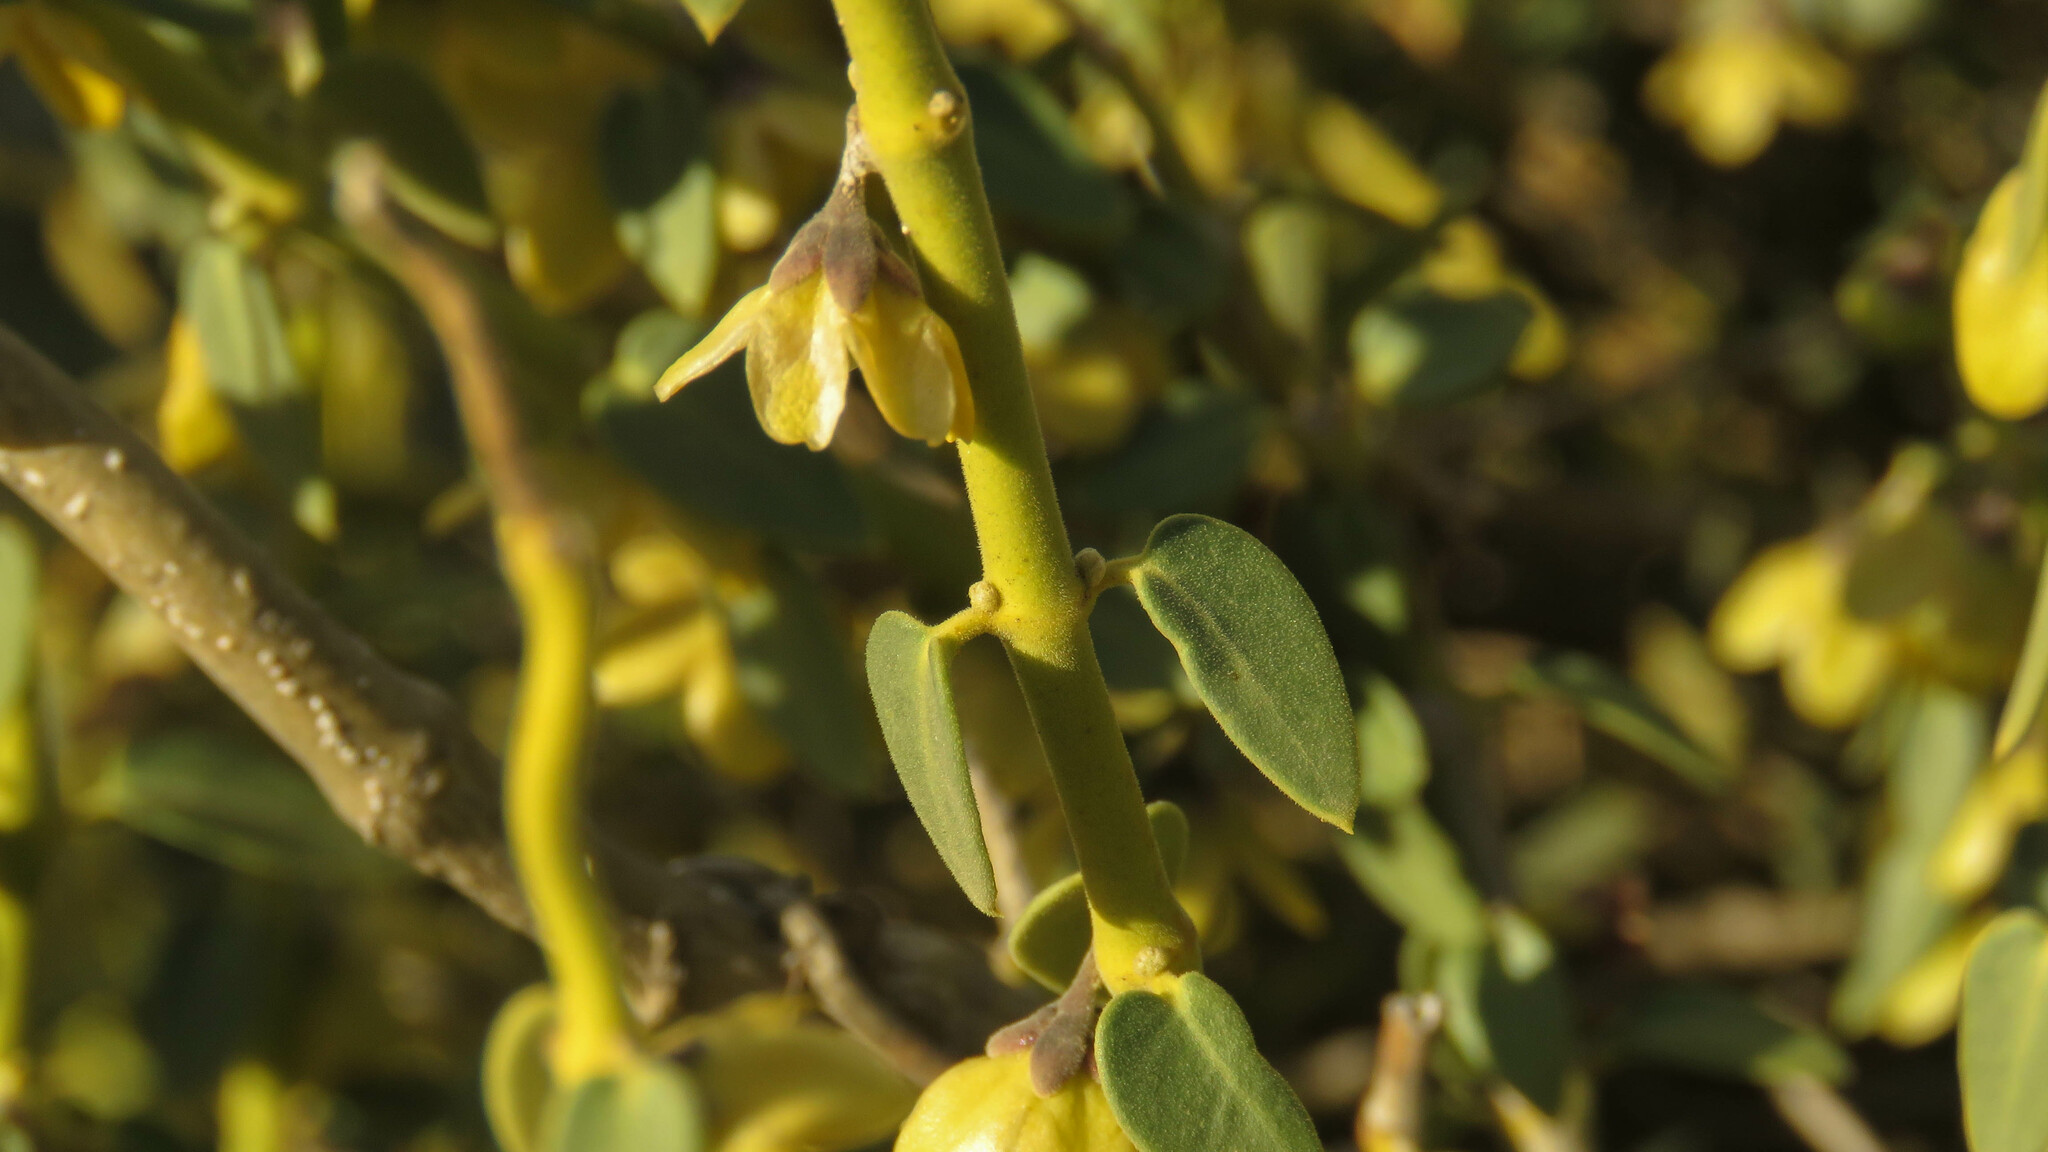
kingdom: Plantae
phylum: Tracheophyta
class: Magnoliopsida
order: Gentianales
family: Apocynaceae
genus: Diplolepis
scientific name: Diplolepis hieronymi
